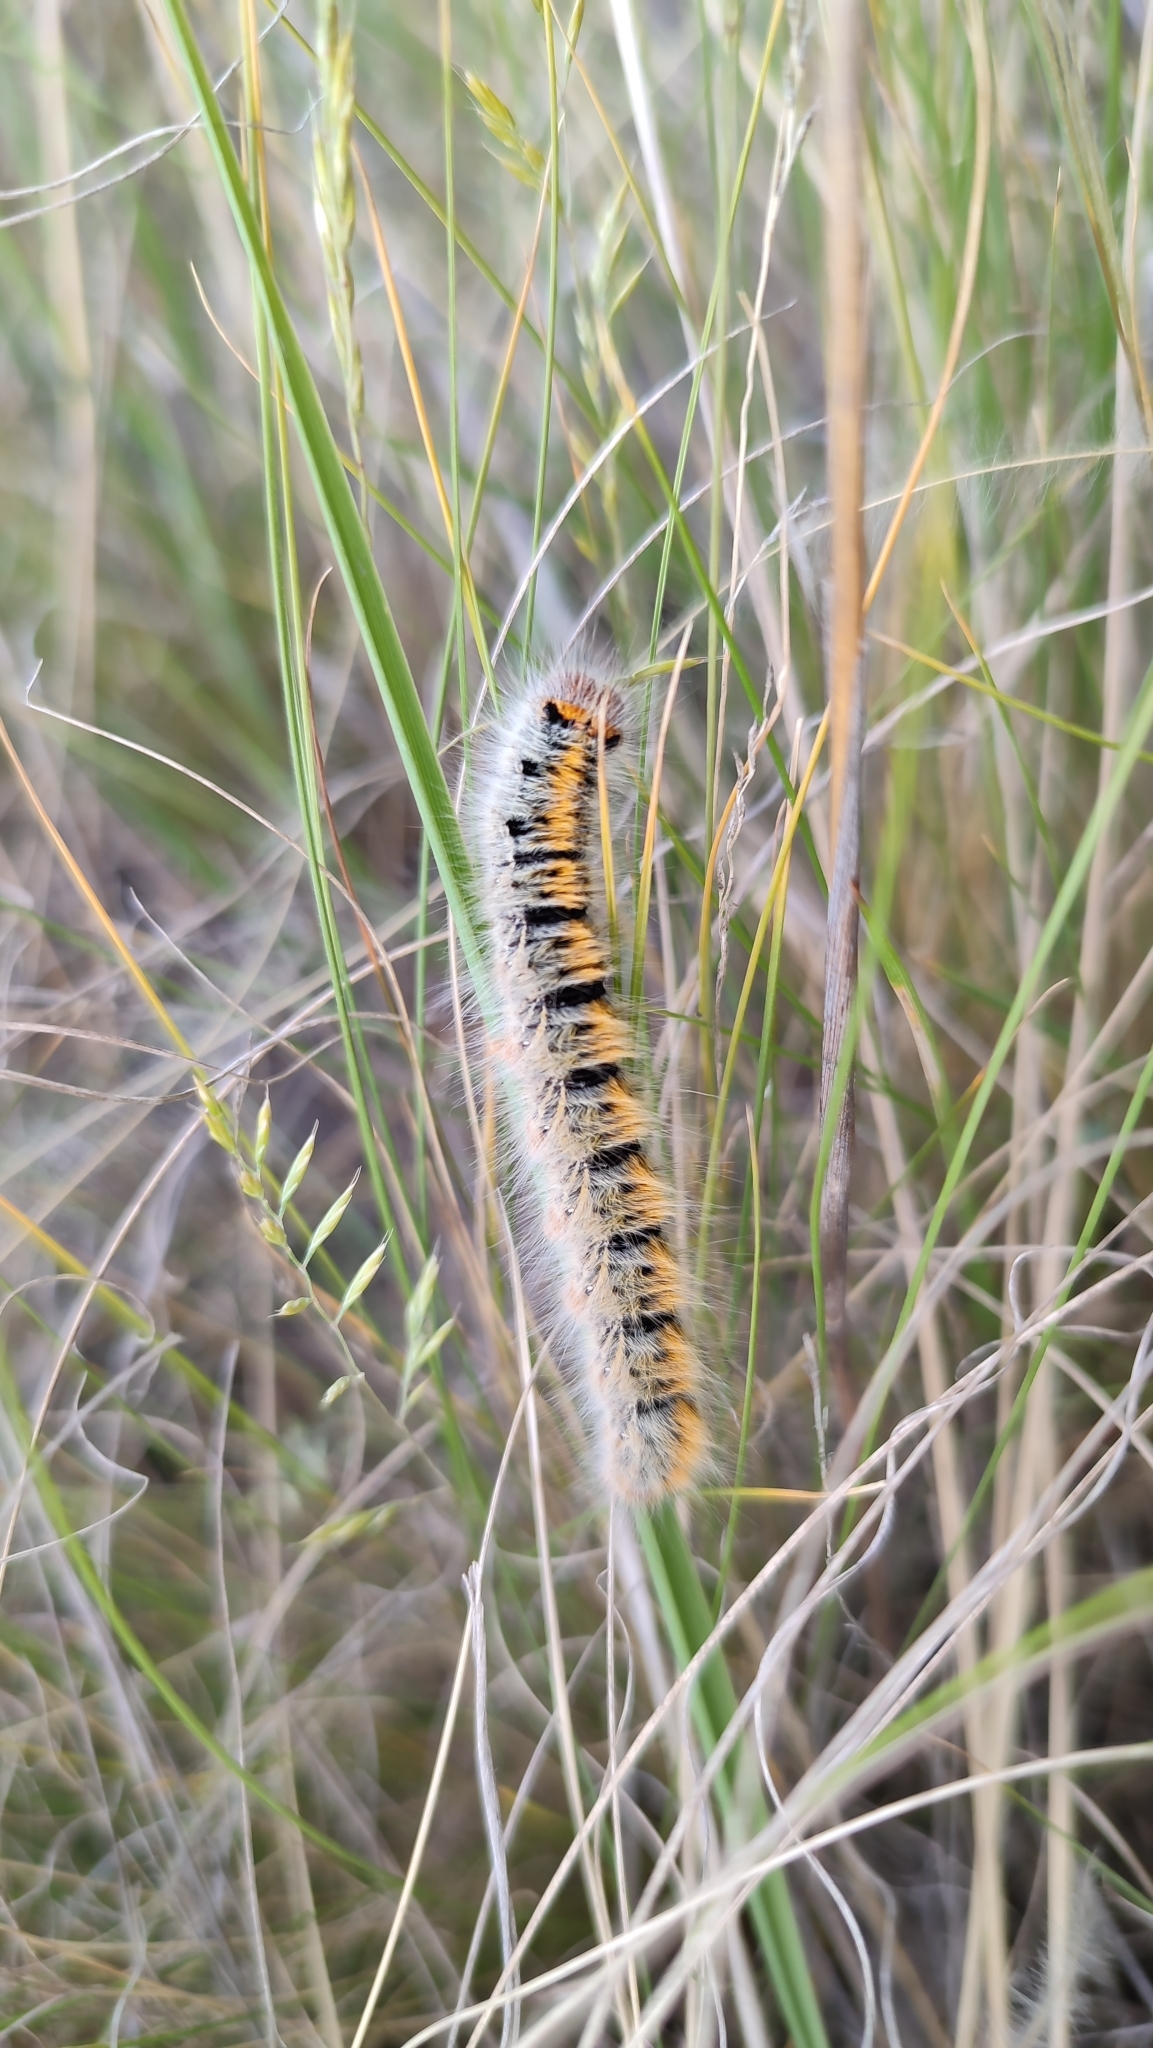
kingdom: Animalia
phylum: Arthropoda
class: Insecta
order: Lepidoptera
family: Lasiocampidae
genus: Lasiocampa
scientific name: Lasiocampa trifolii
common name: Grass eggar
